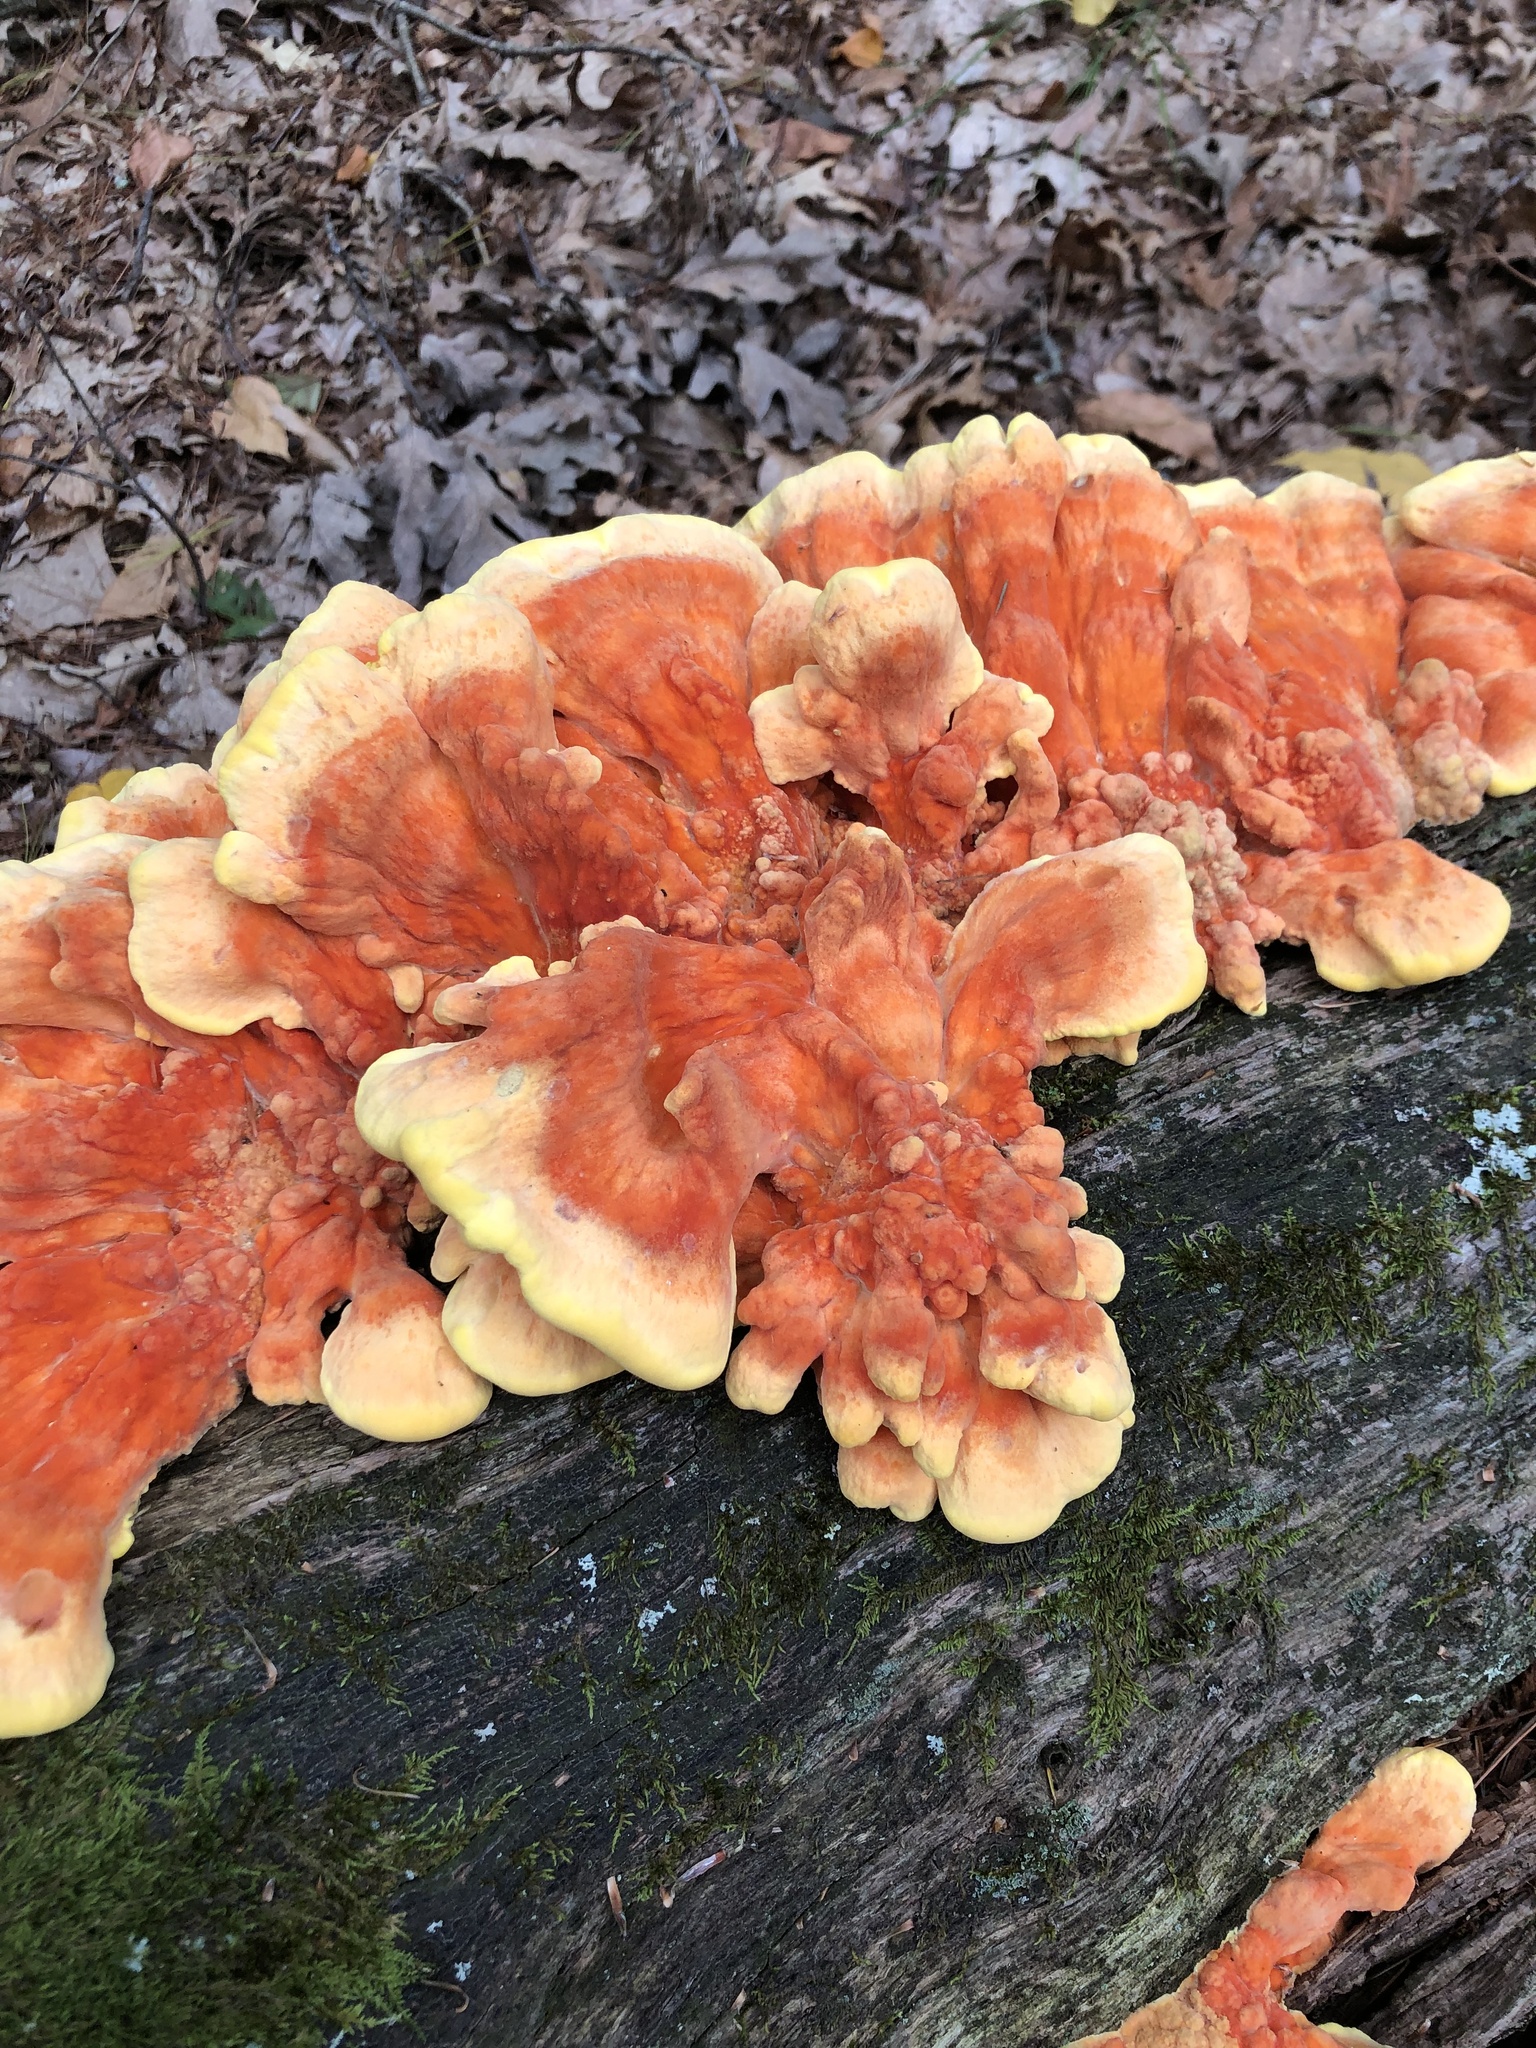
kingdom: Fungi
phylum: Basidiomycota
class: Agaricomycetes
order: Polyporales
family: Laetiporaceae
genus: Laetiporus
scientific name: Laetiporus sulphureus
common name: Chicken of the woods
